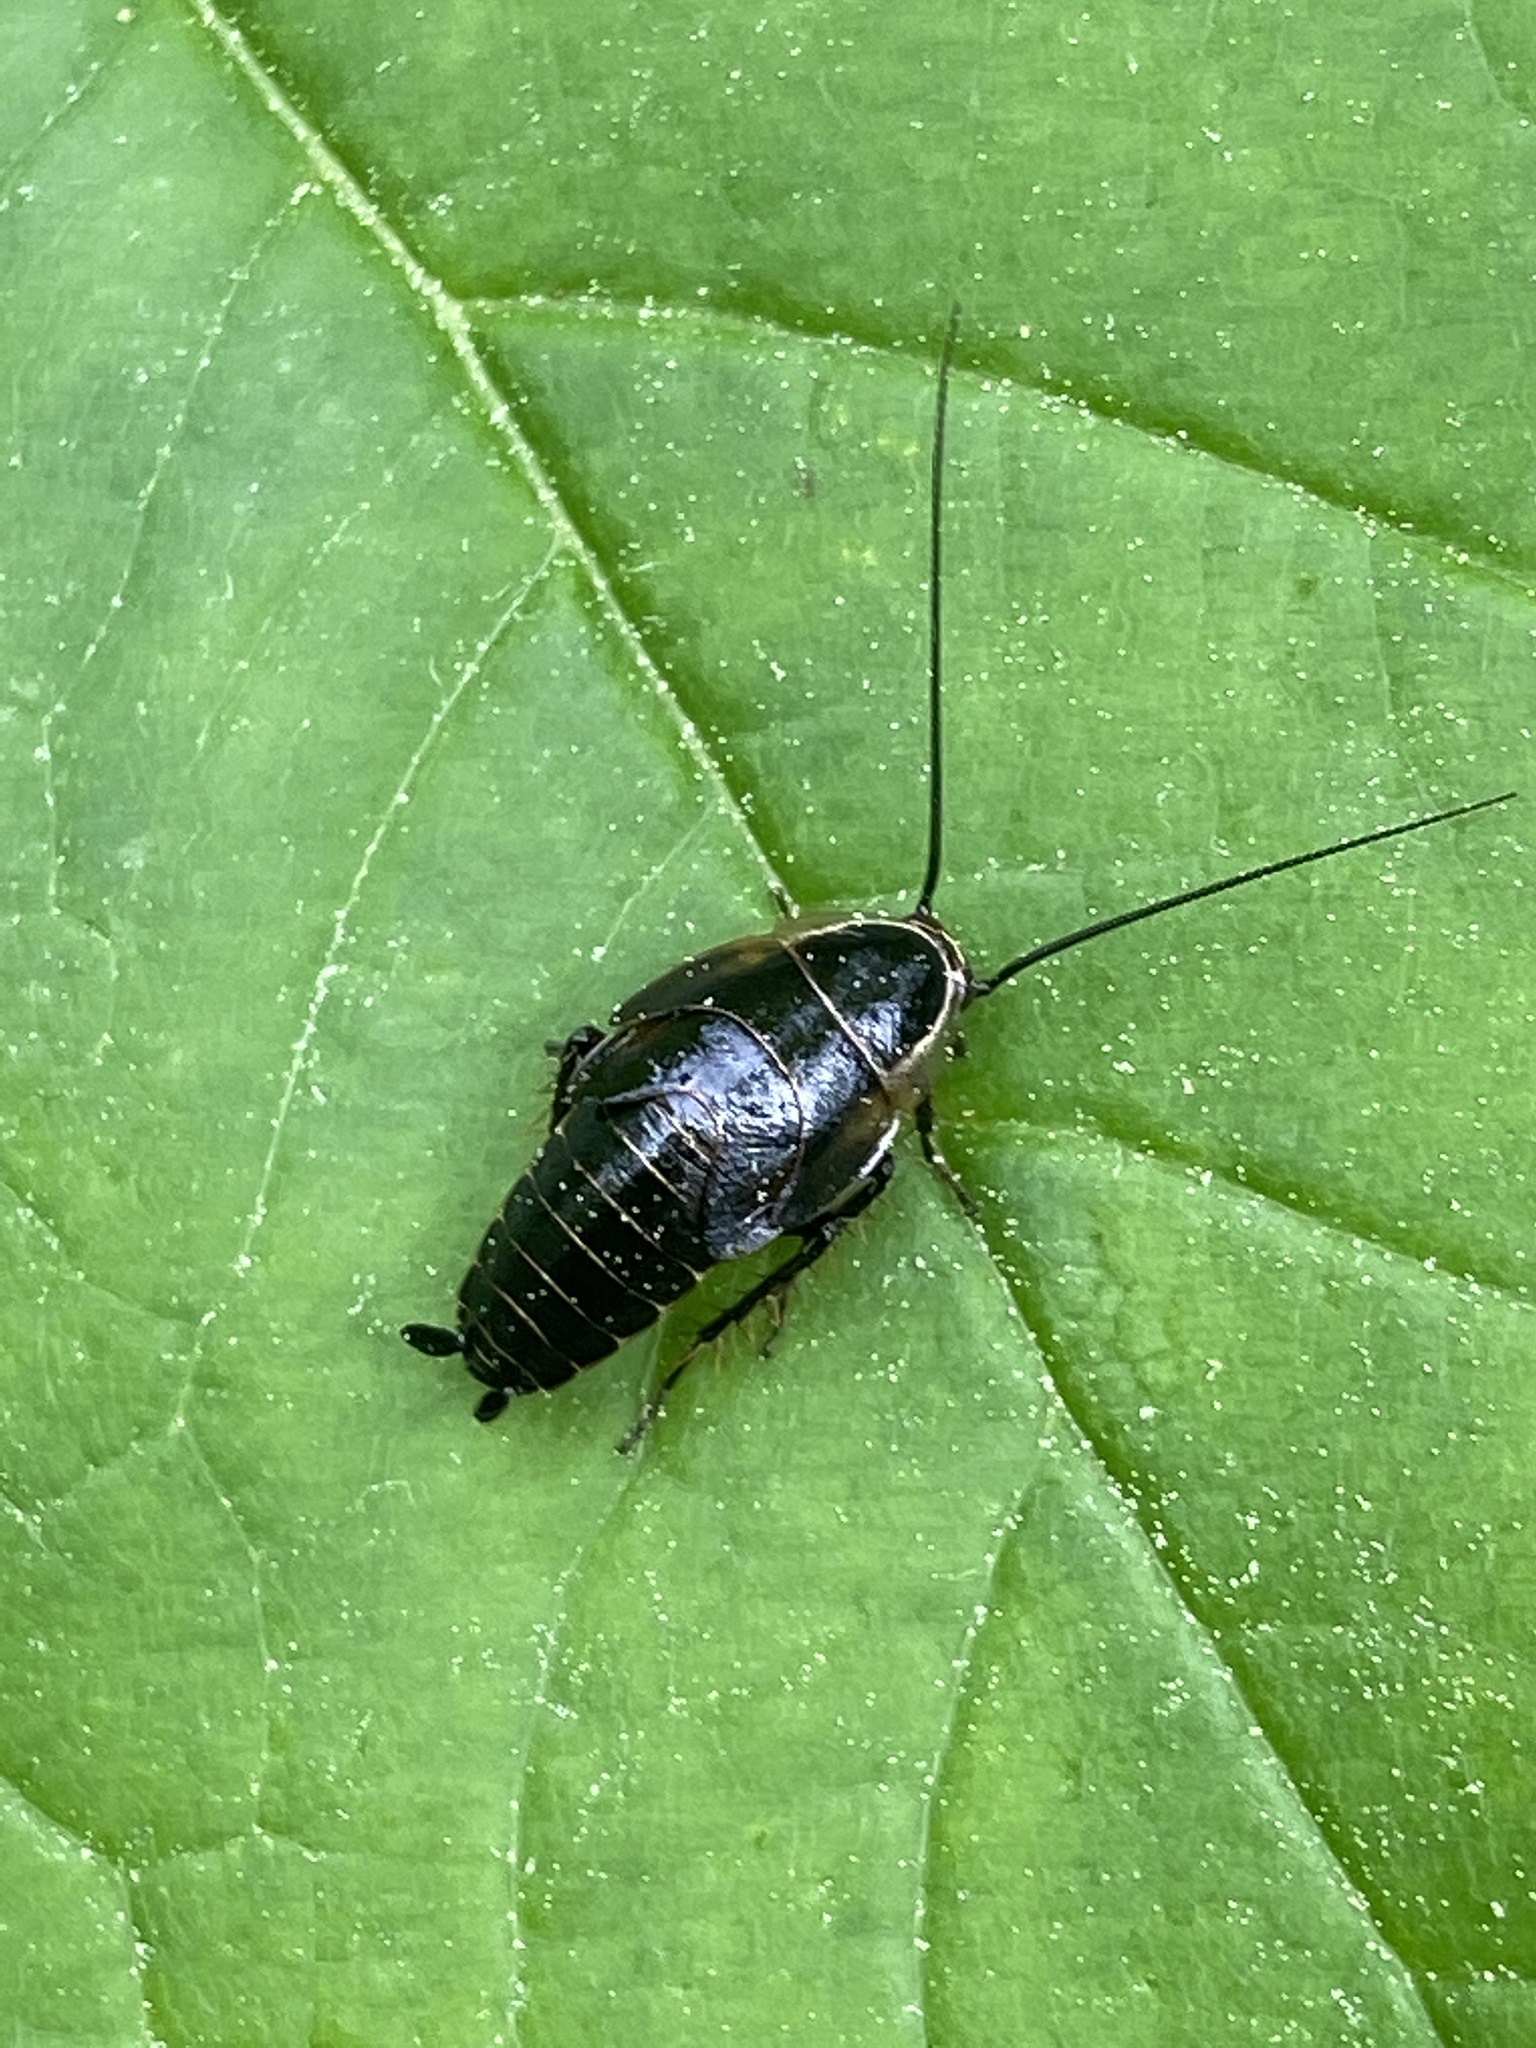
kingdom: Animalia
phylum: Arthropoda
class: Insecta
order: Blattodea
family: Ectobiidae
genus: Ectobius
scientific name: Ectobius sylvestris
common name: Forest cockroach
